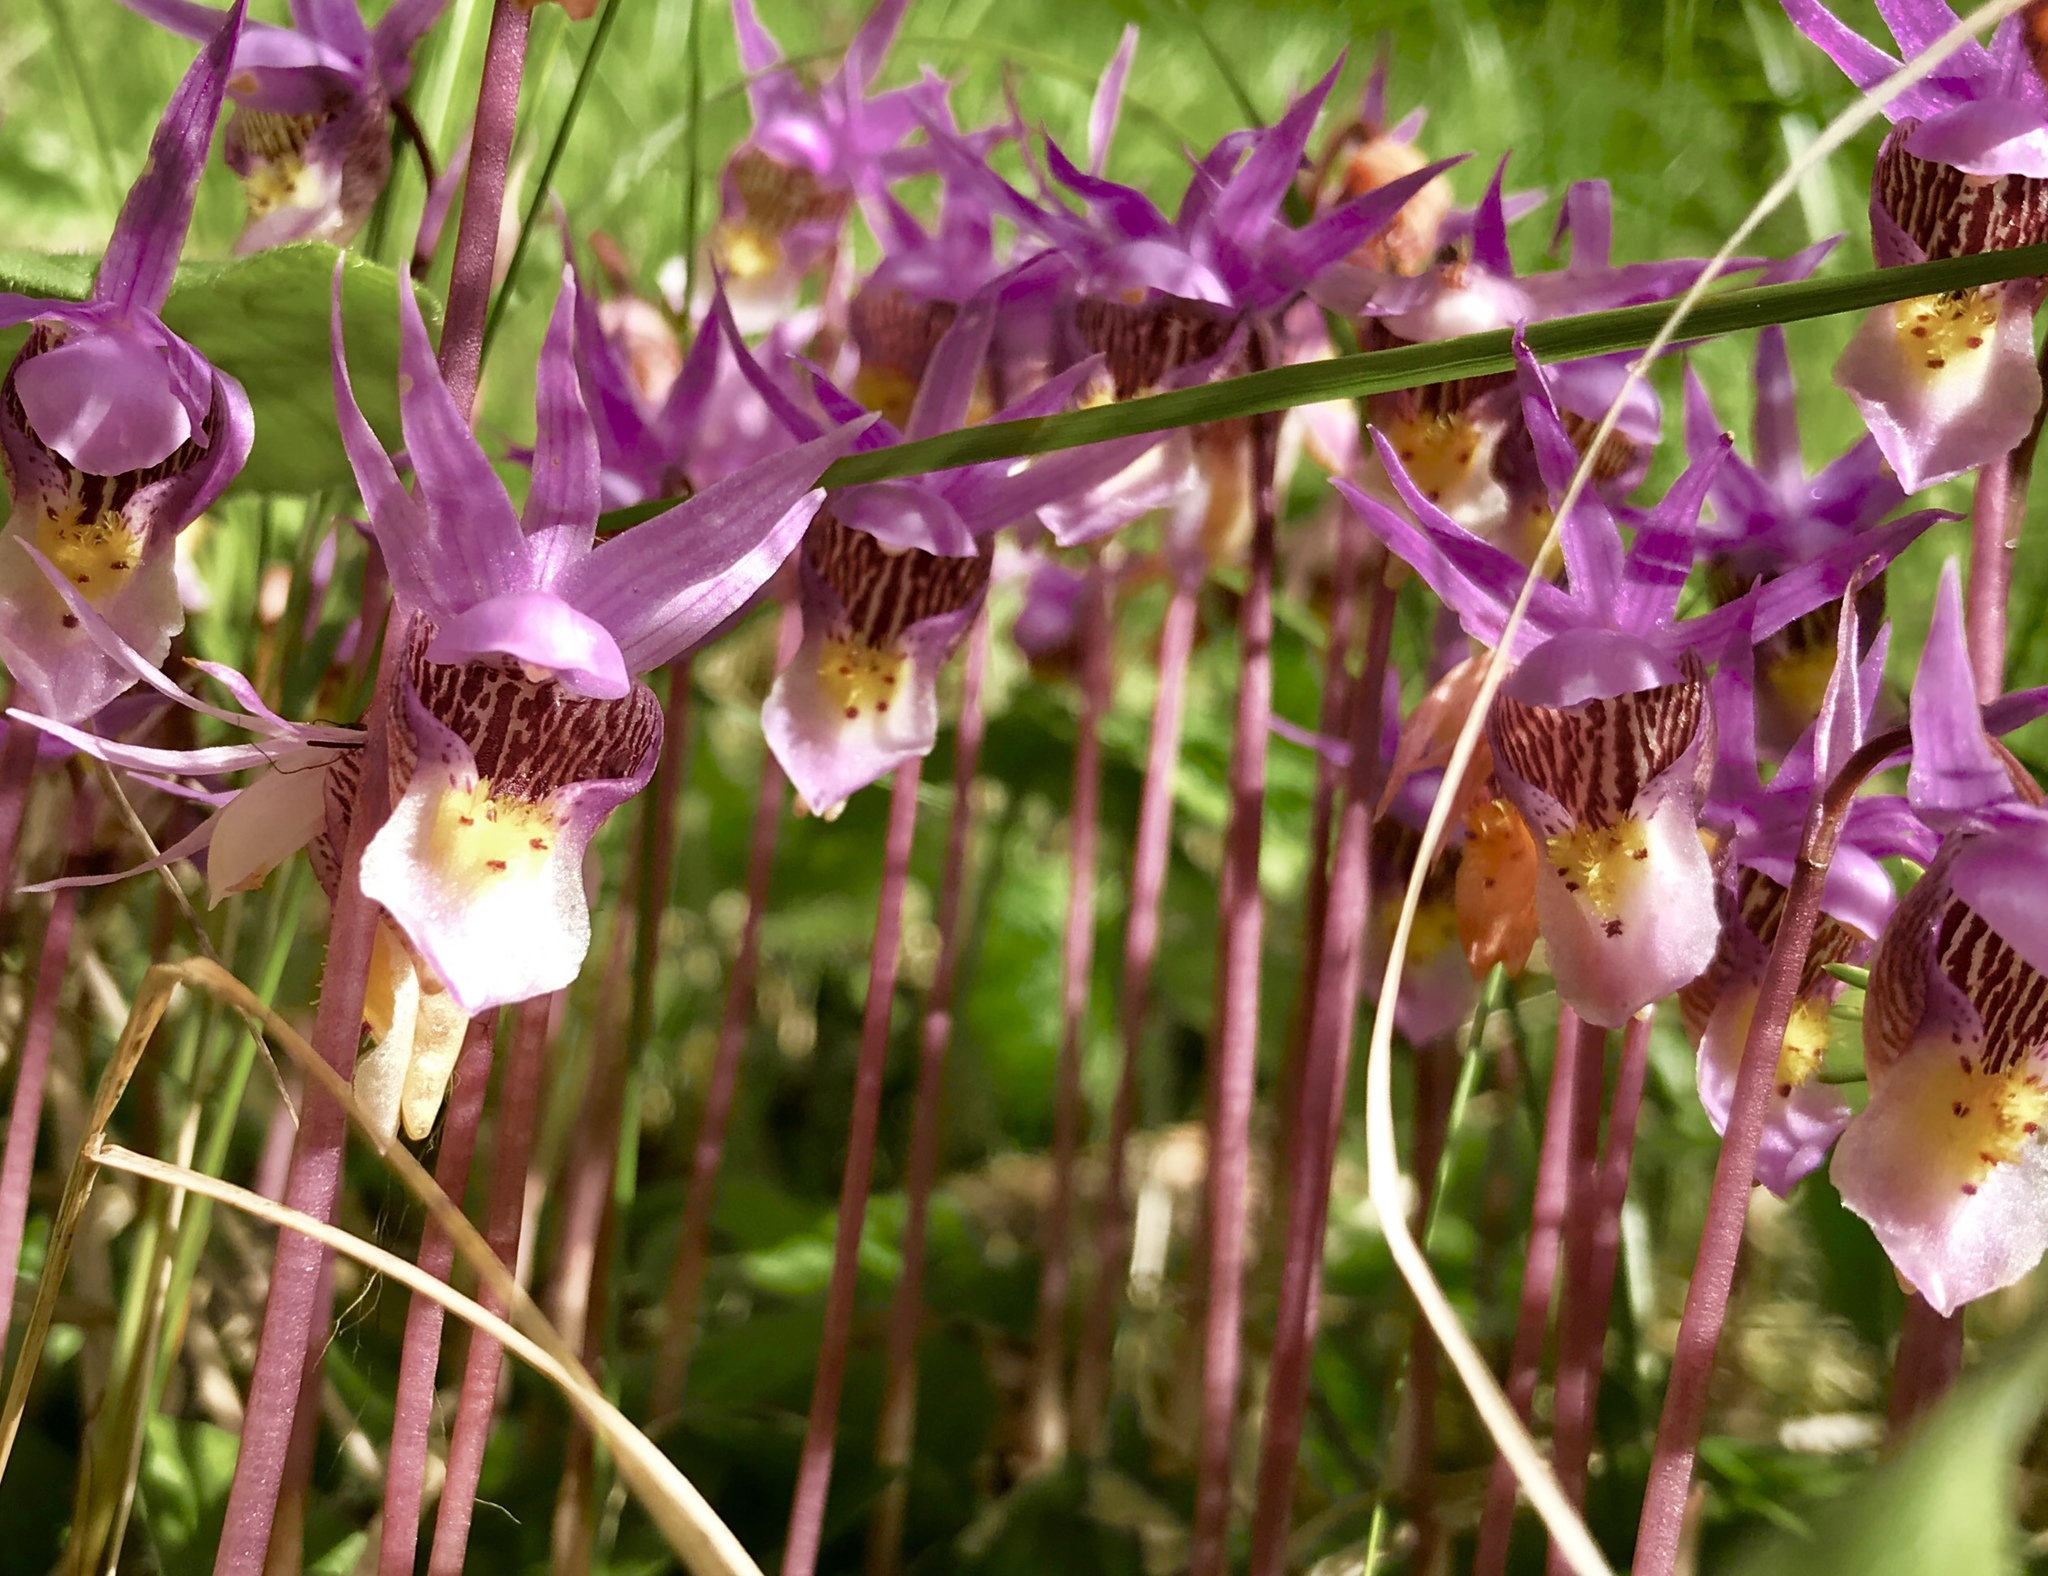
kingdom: Plantae
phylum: Tracheophyta
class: Liliopsida
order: Asparagales
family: Orchidaceae
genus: Calypso
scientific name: Calypso bulbosa
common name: Calypso
